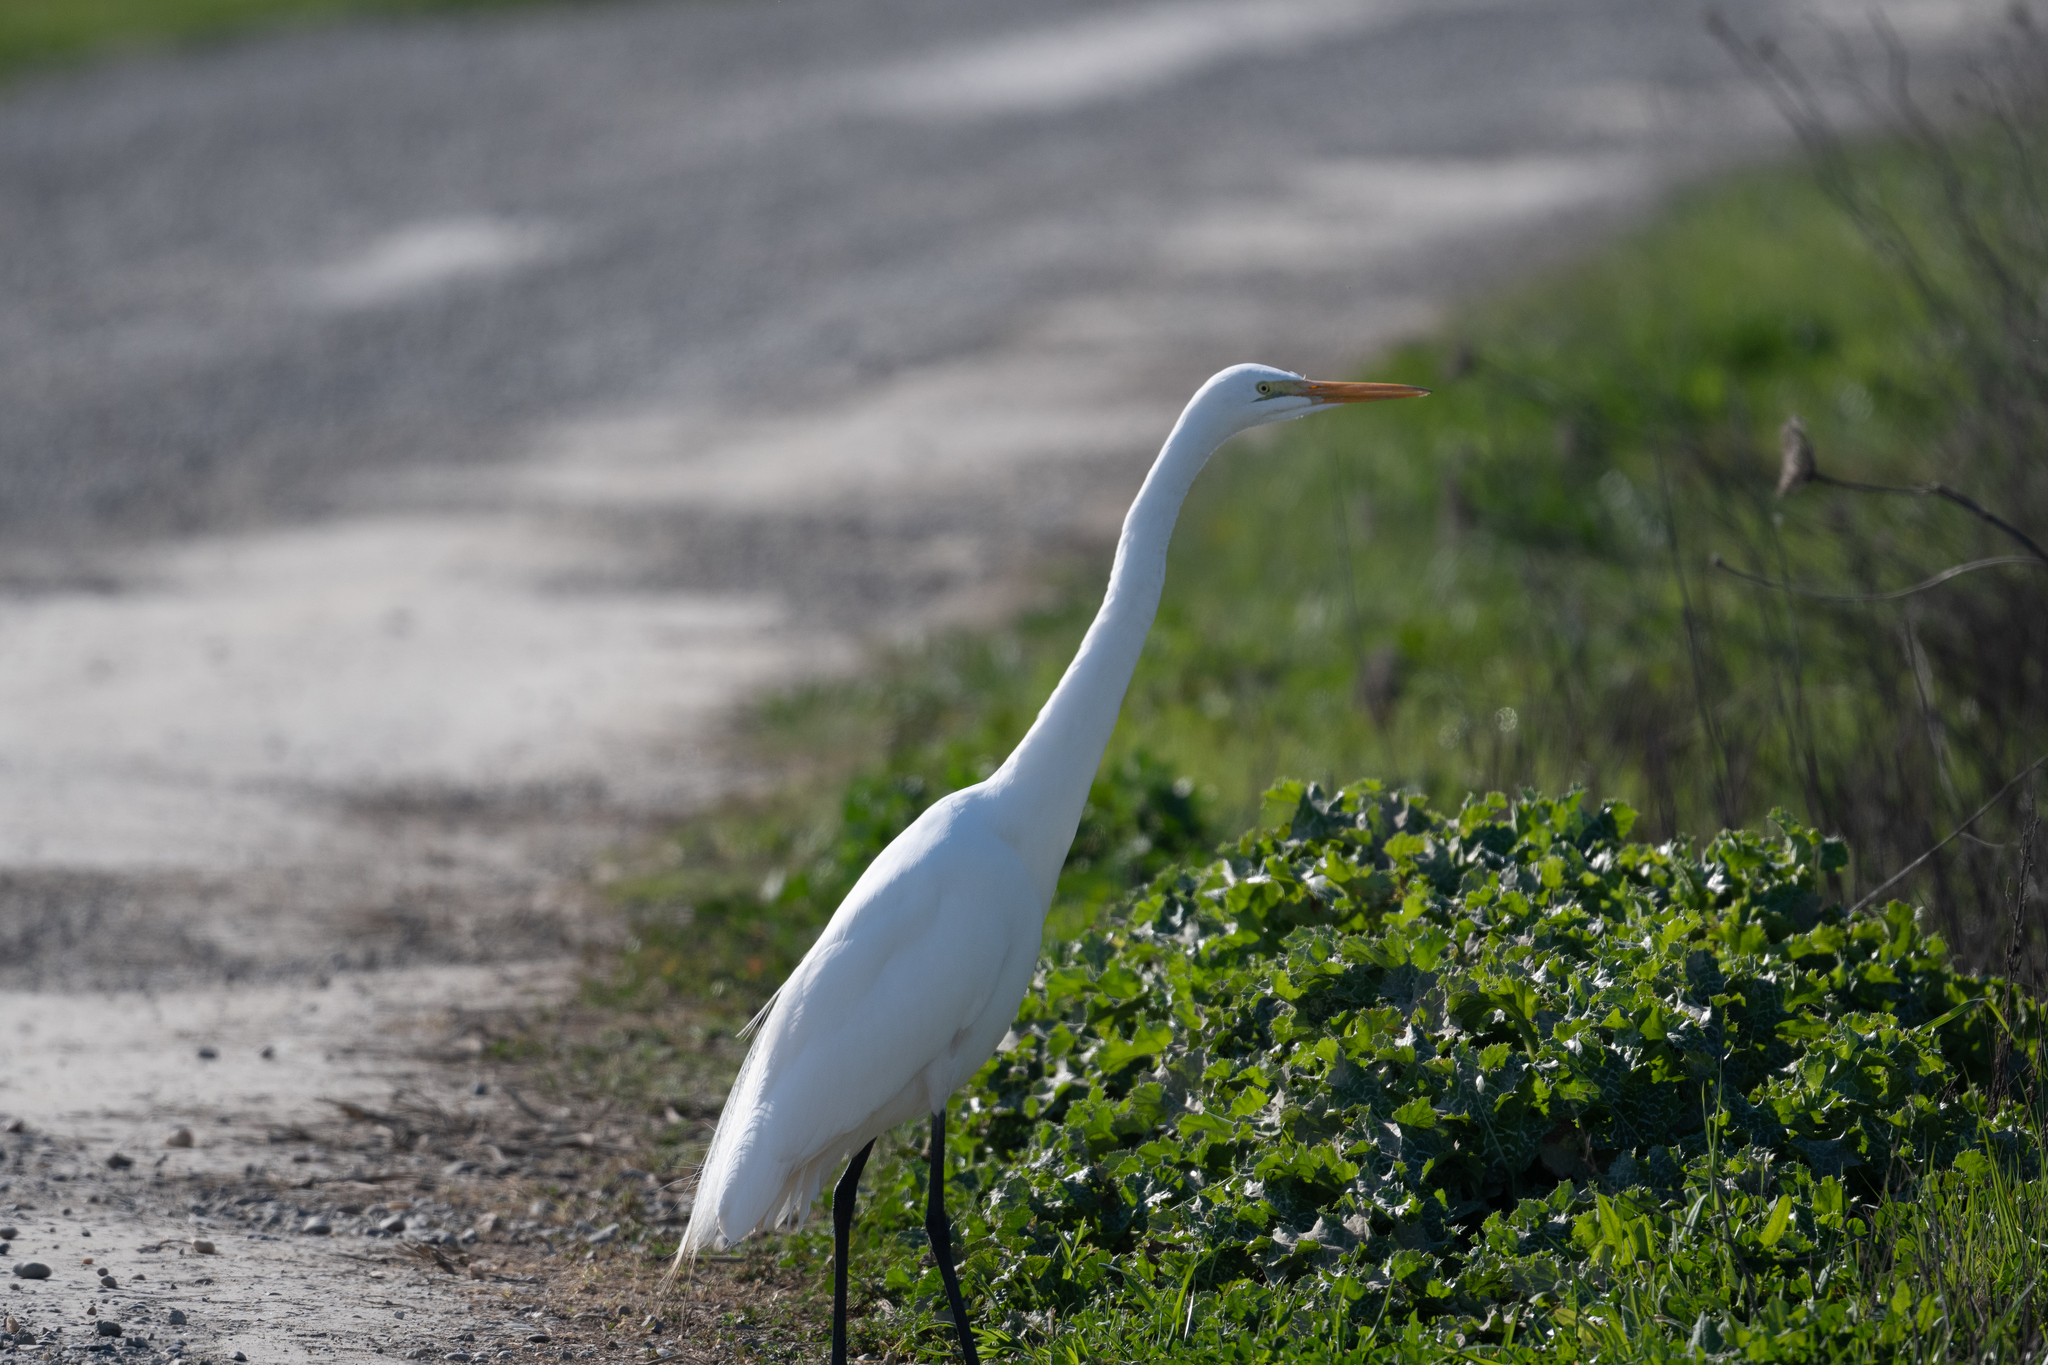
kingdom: Animalia
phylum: Chordata
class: Aves
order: Pelecaniformes
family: Ardeidae
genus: Ardea
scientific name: Ardea alba
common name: Great egret
